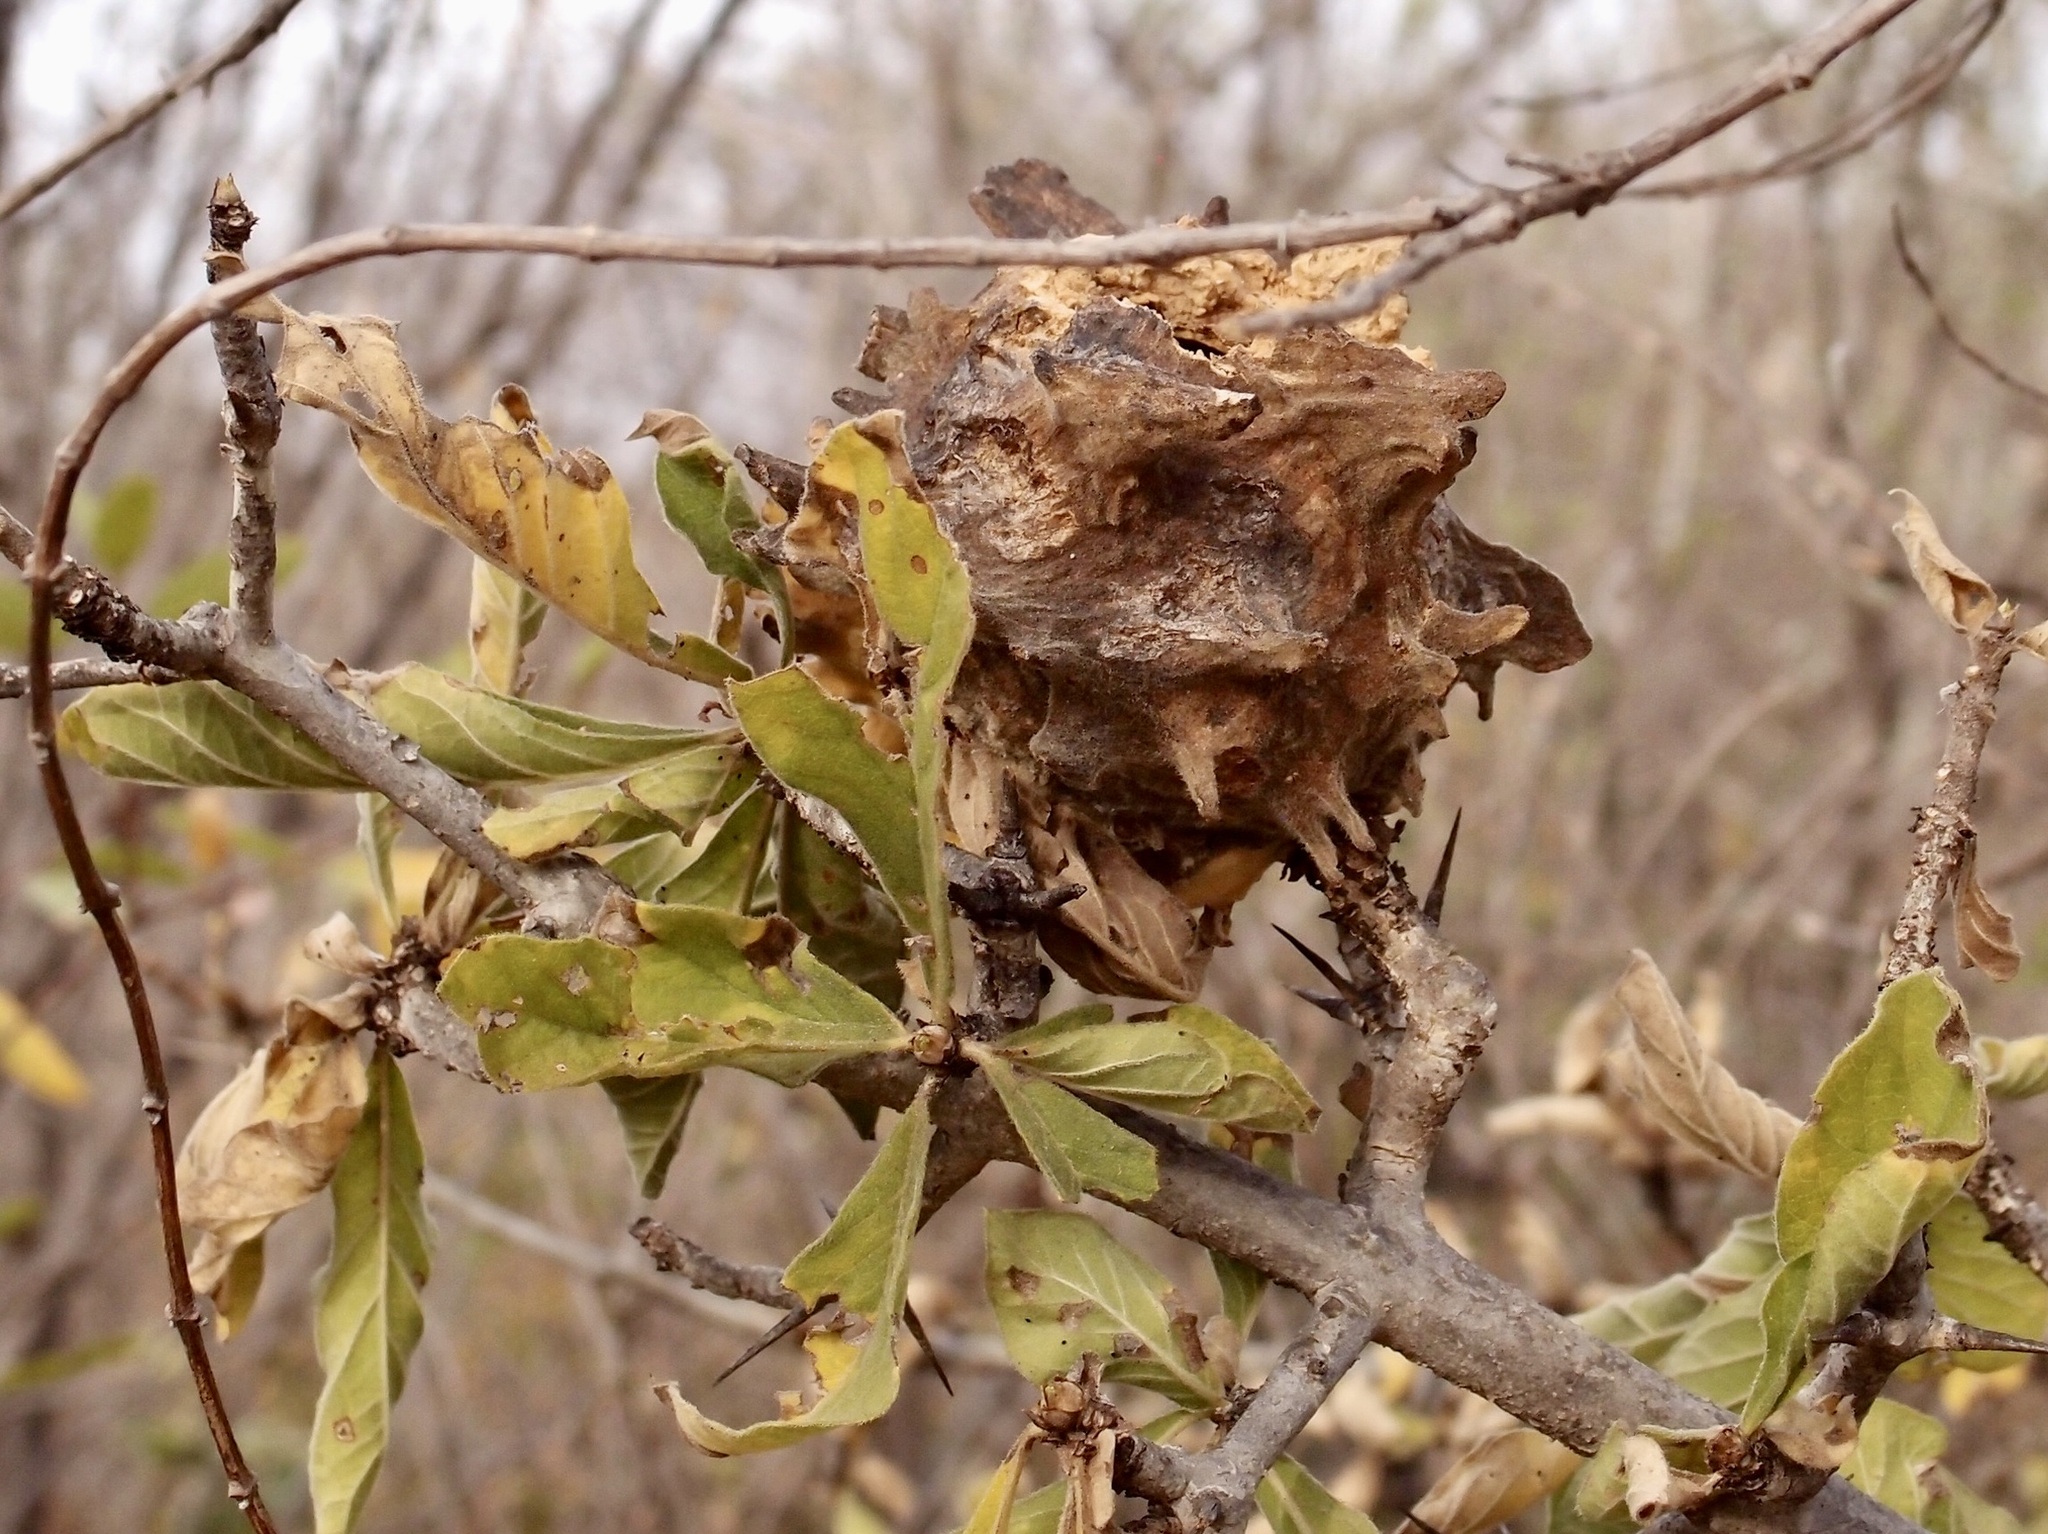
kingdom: Plantae
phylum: Tracheophyta
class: Magnoliopsida
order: Gentianales
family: Rubiaceae
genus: Randia
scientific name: Randia echinocarpa
